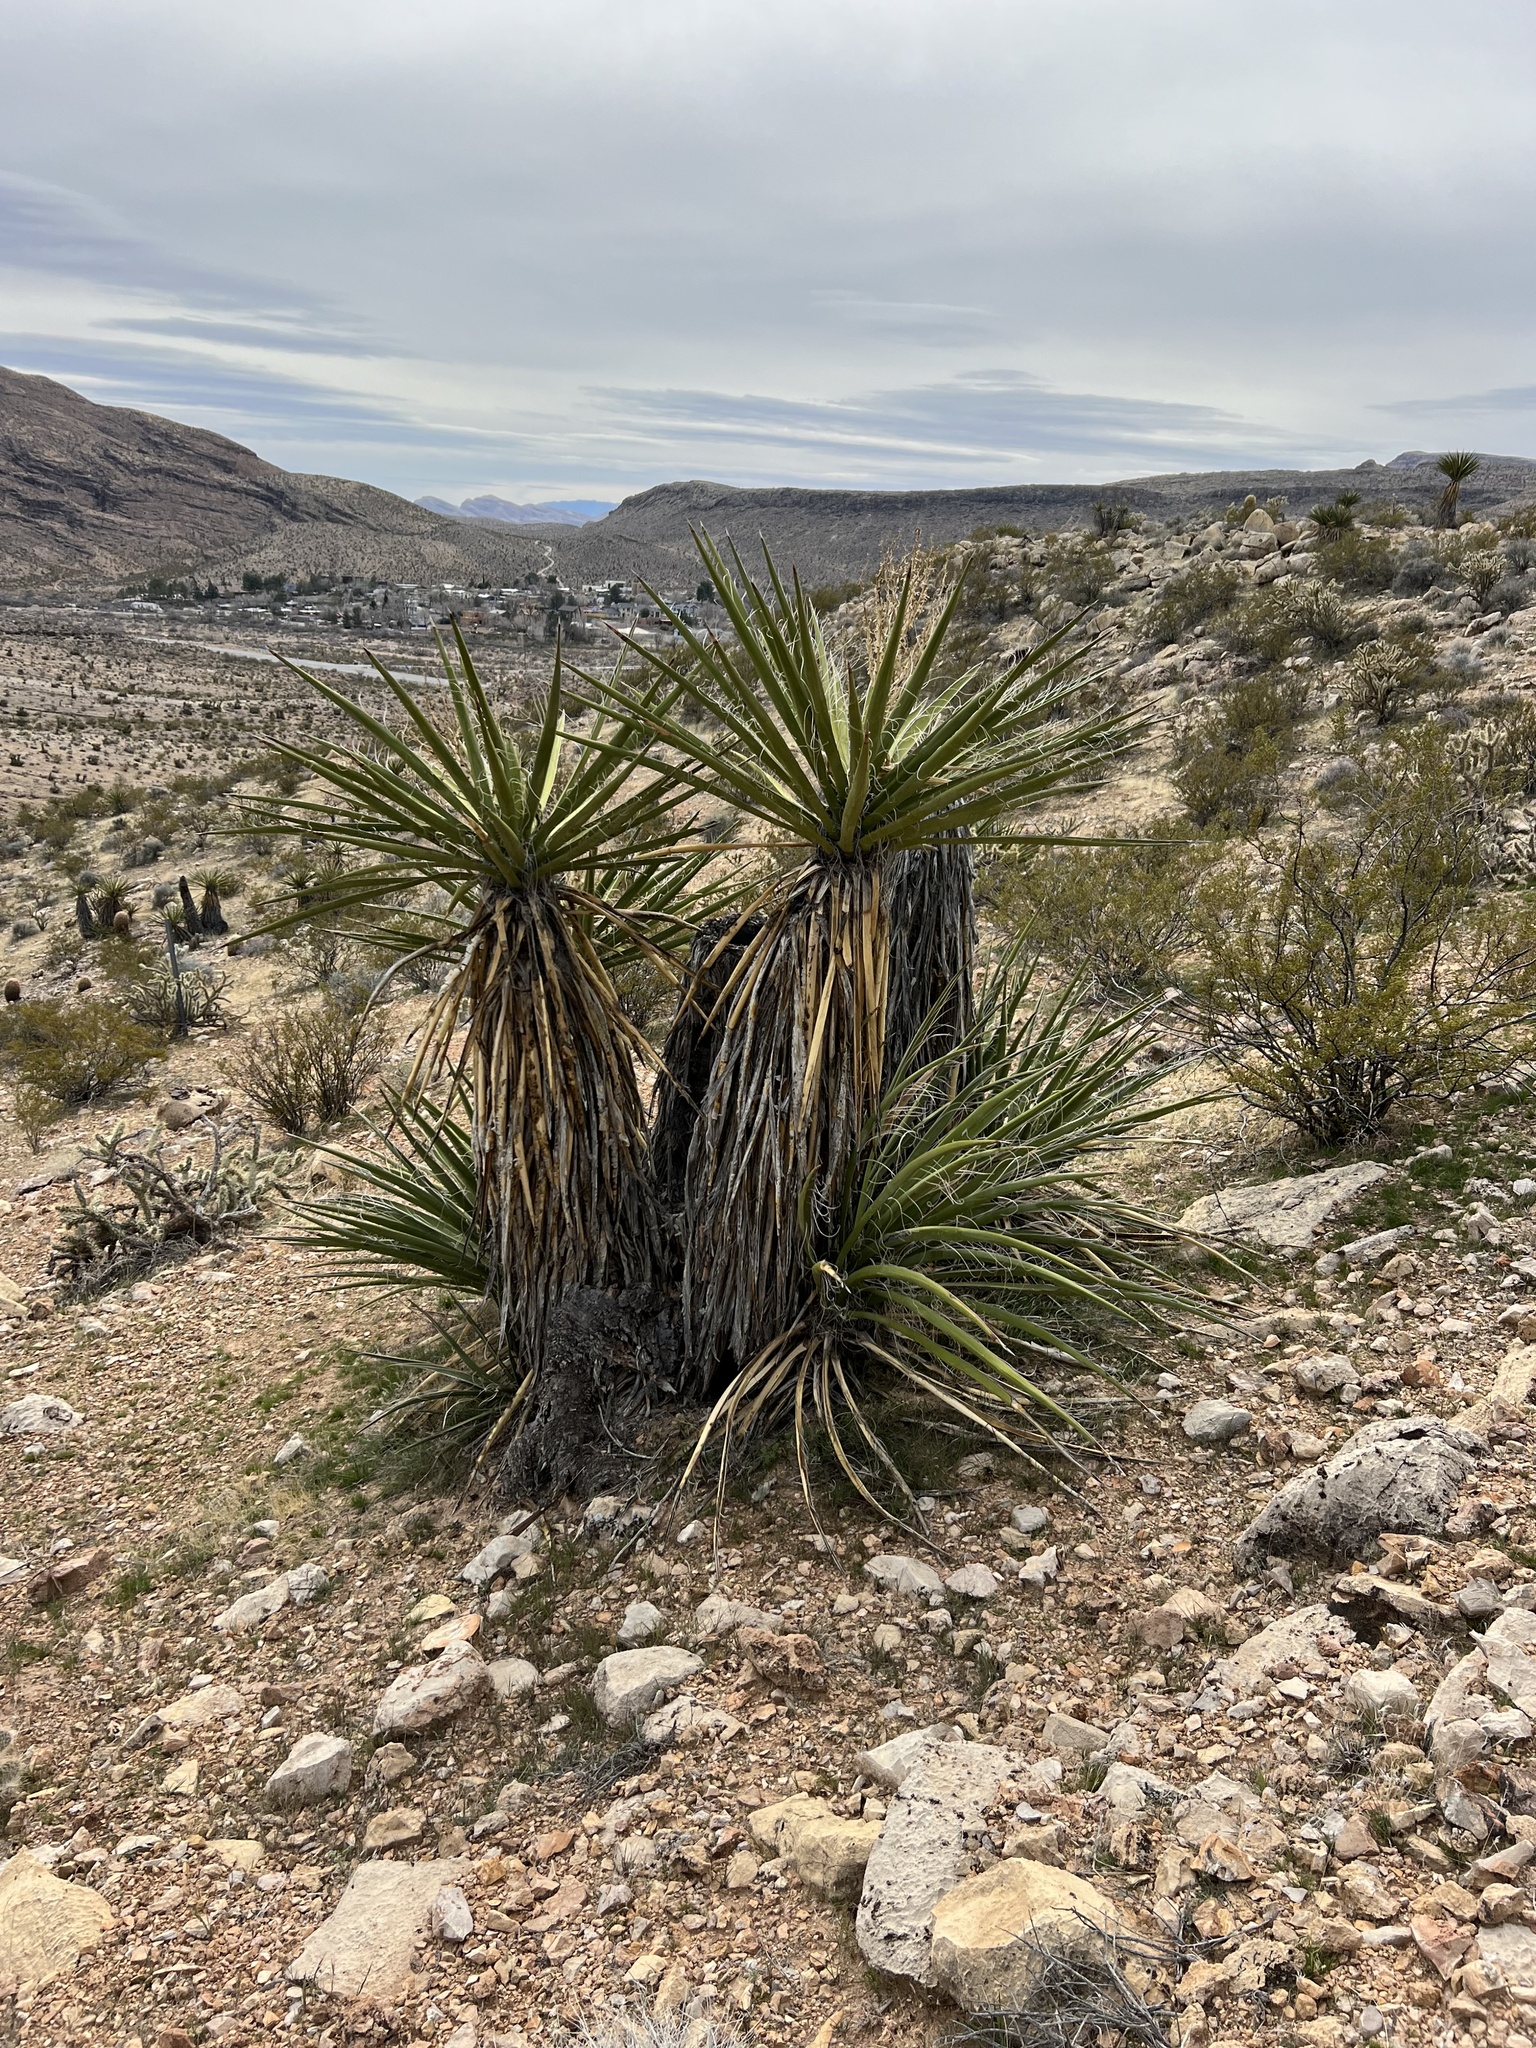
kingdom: Plantae
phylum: Tracheophyta
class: Liliopsida
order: Asparagales
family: Asparagaceae
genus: Yucca
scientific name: Yucca schidigera
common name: Mojave yucca
